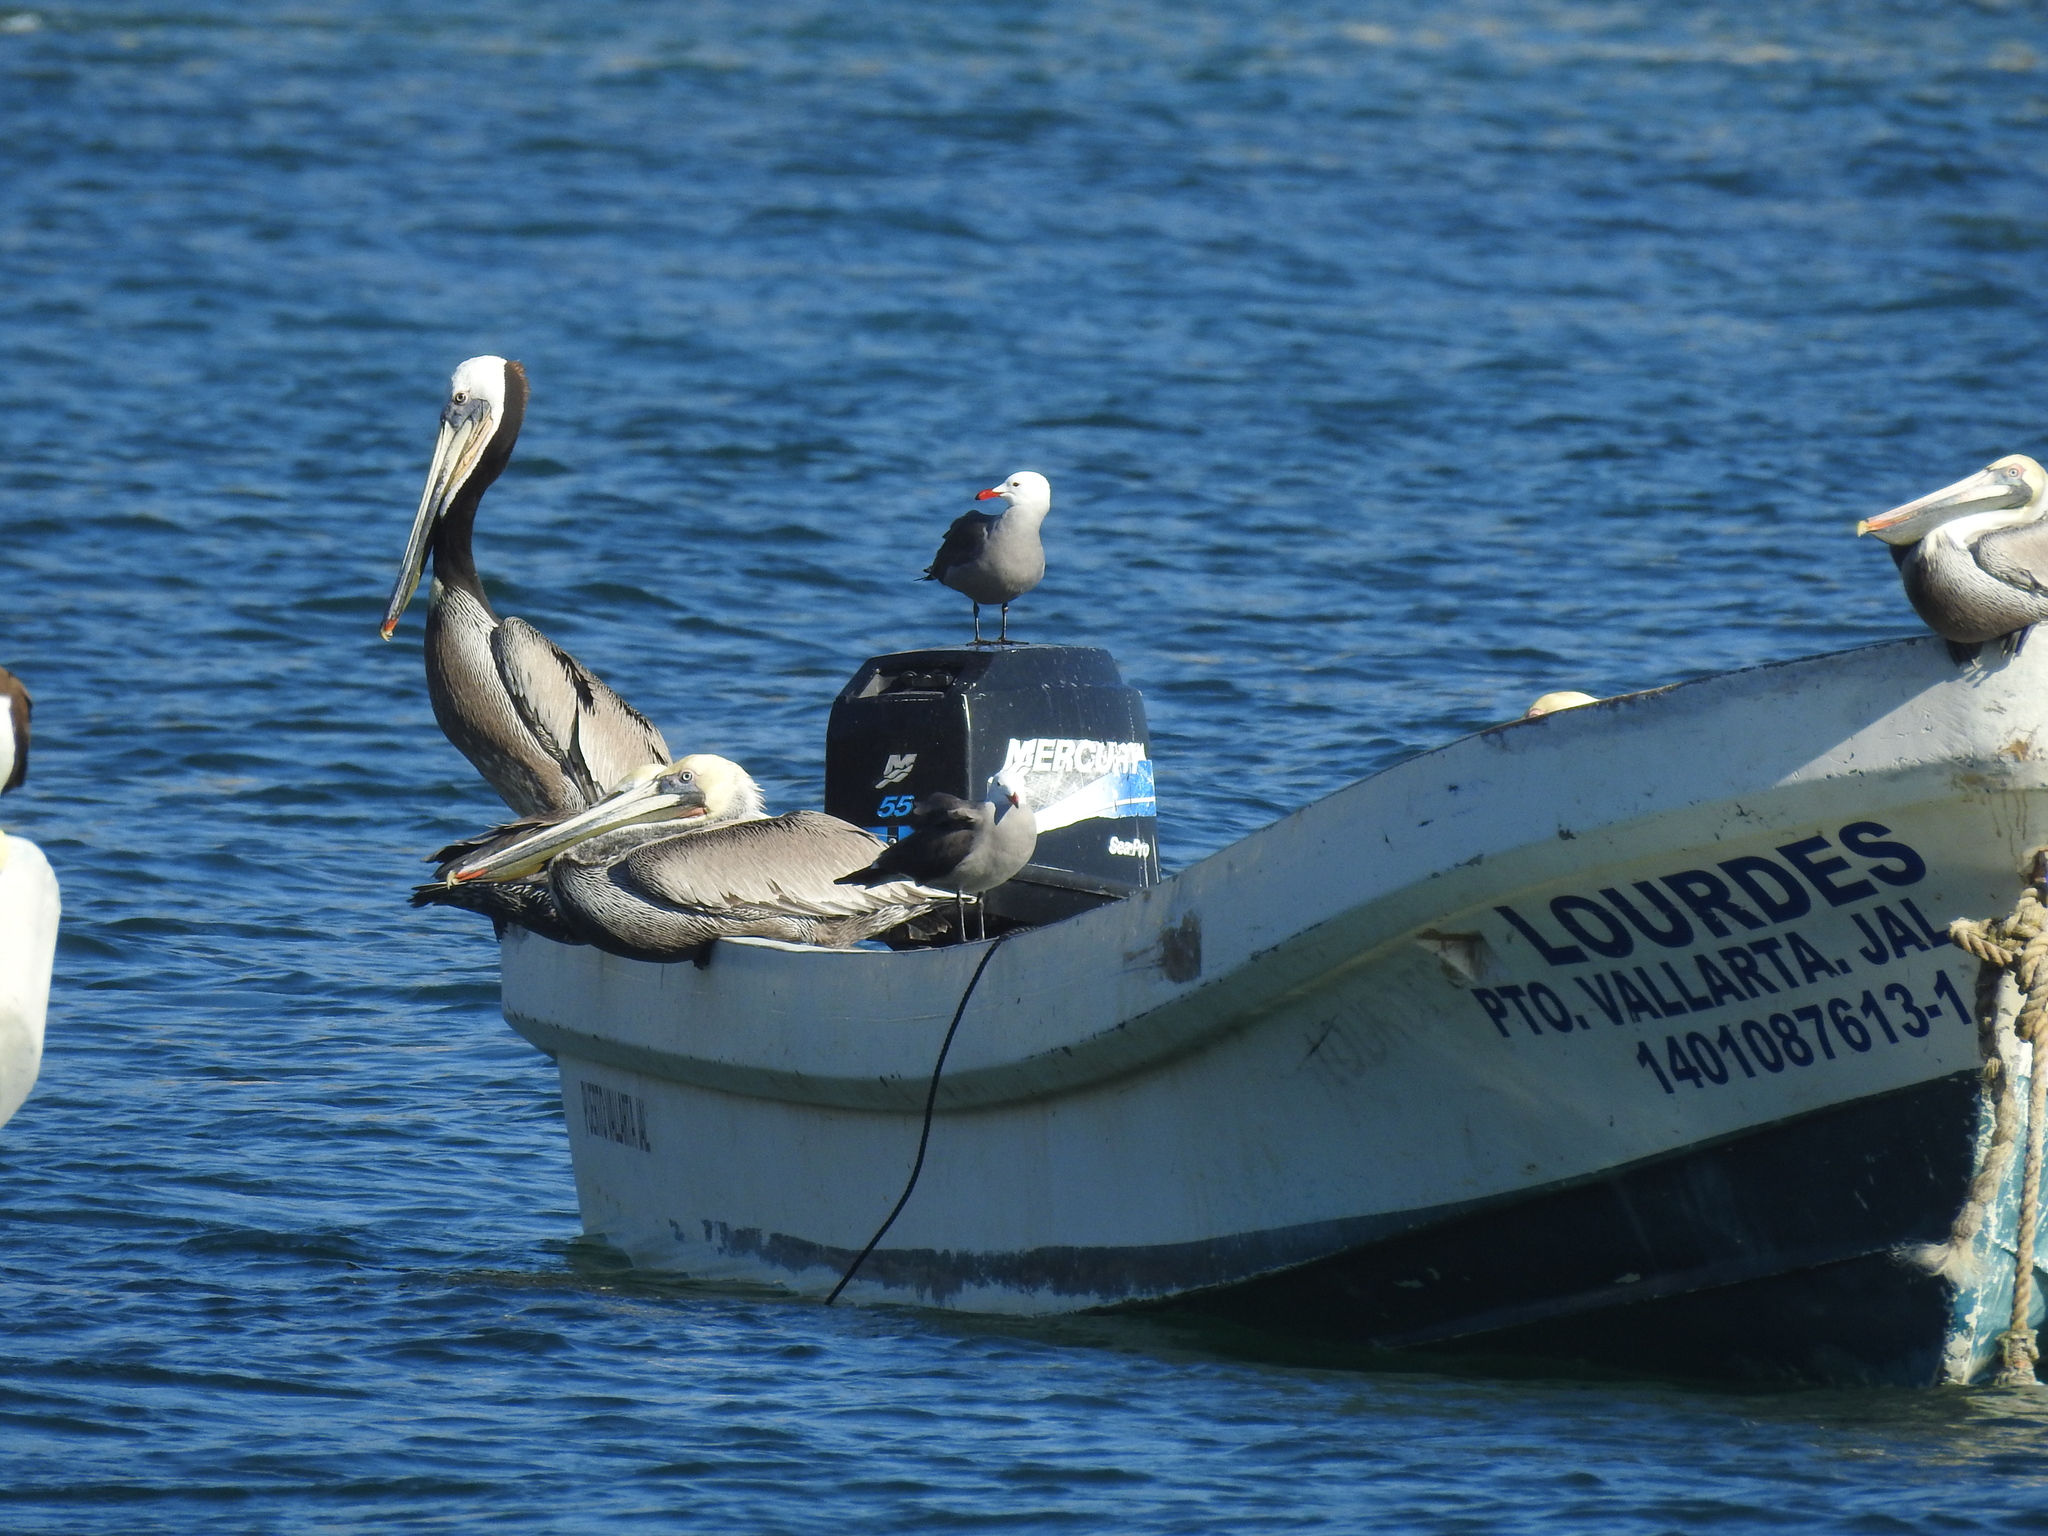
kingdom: Animalia
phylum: Chordata
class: Aves
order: Pelecaniformes
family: Pelecanidae
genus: Pelecanus
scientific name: Pelecanus occidentalis
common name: Brown pelican
